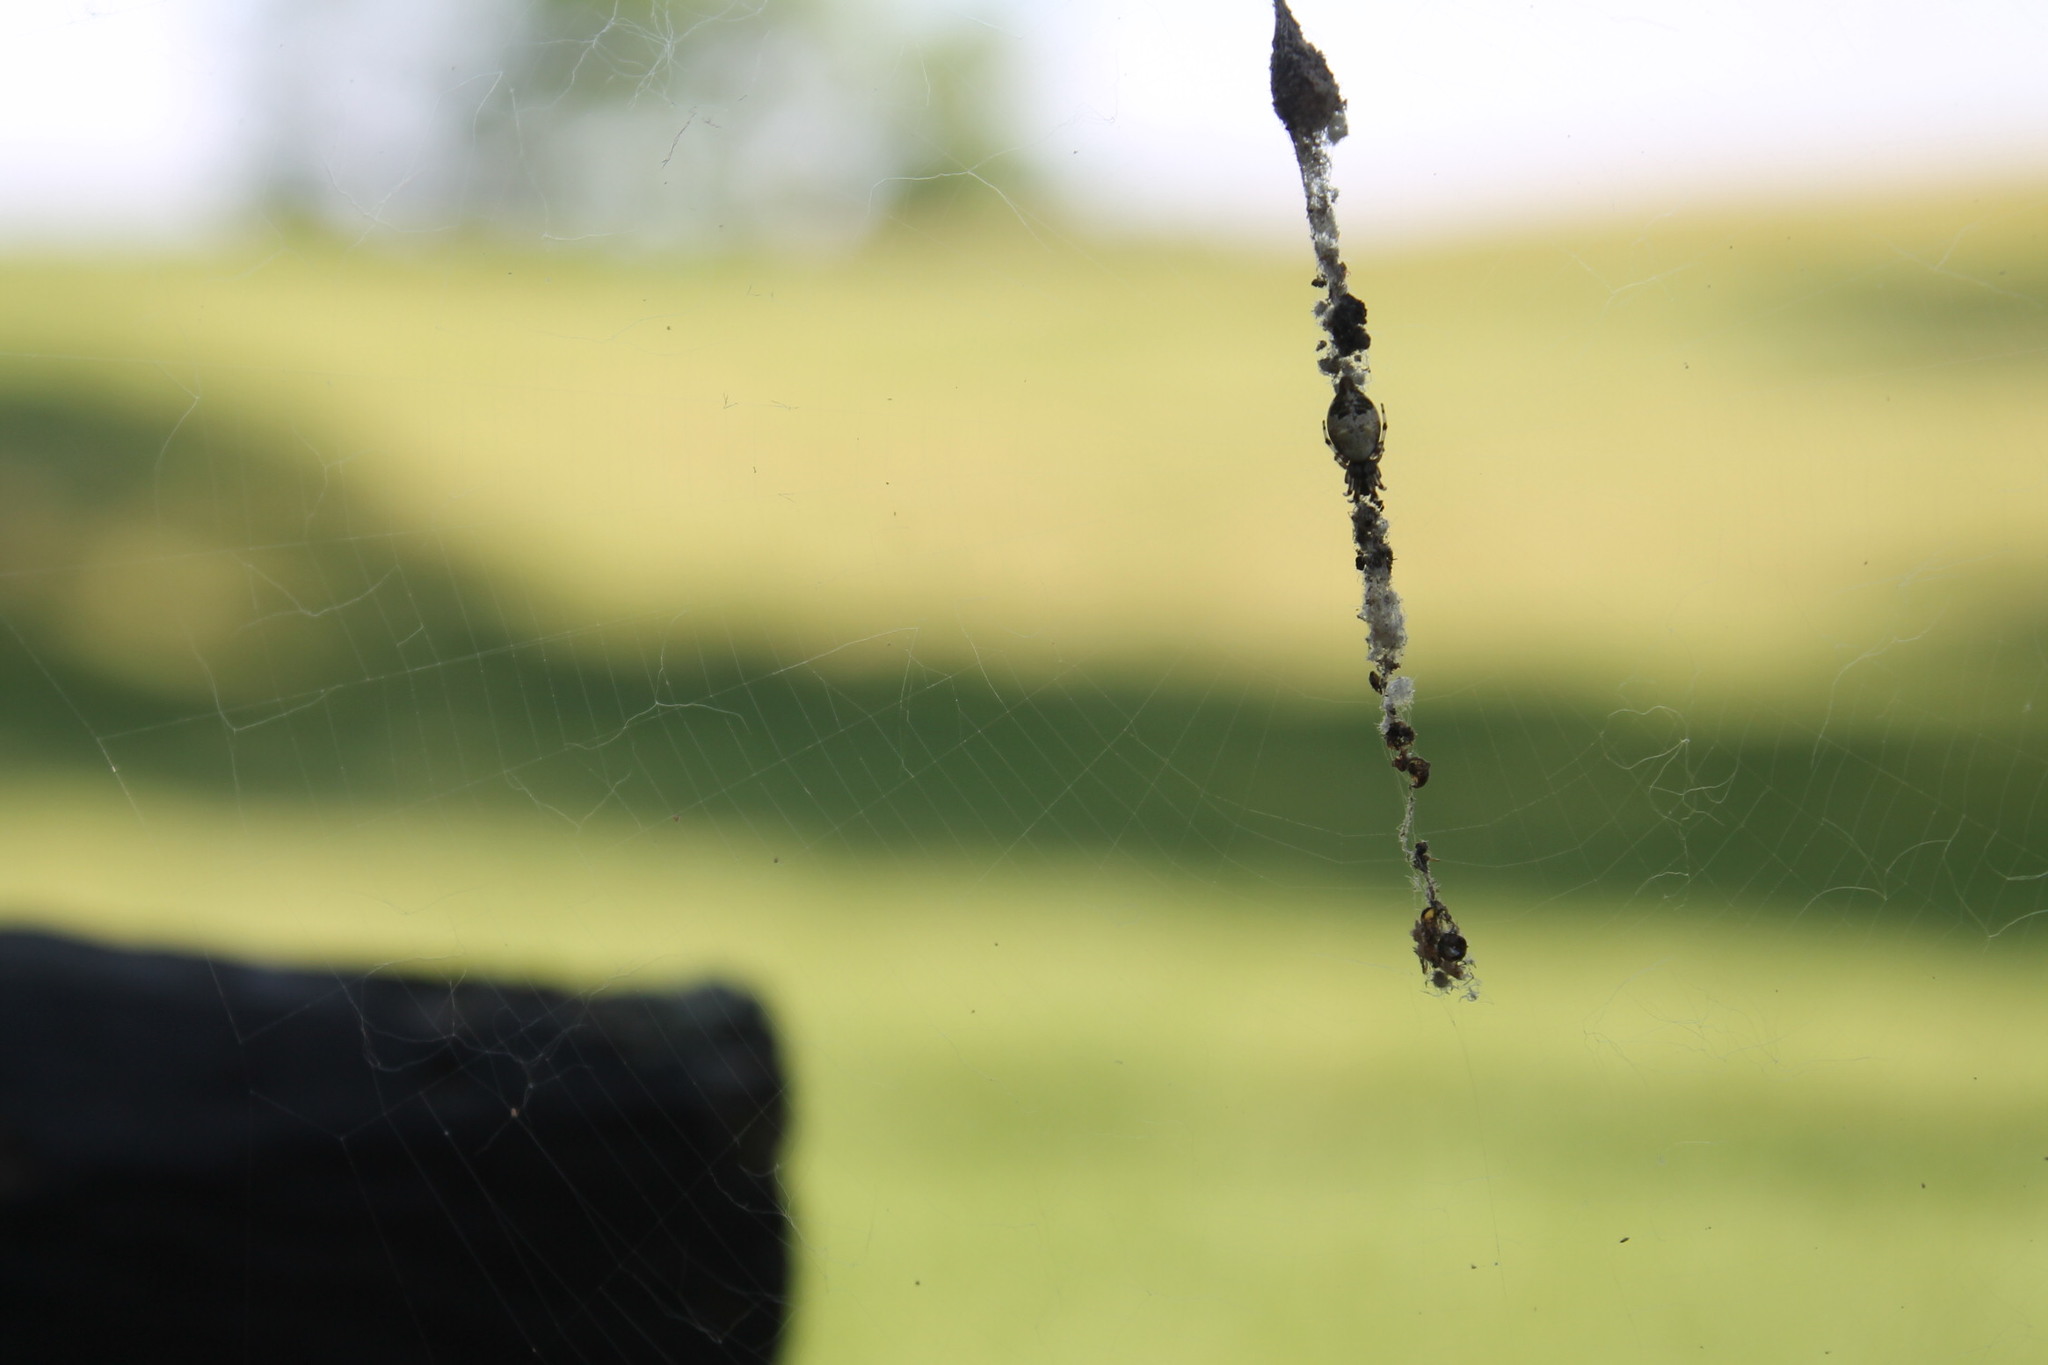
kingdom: Animalia
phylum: Arthropoda
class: Arachnida
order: Araneae
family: Araneidae
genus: Cyclosa
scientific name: Cyclosa turbinata
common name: Orb weavers
